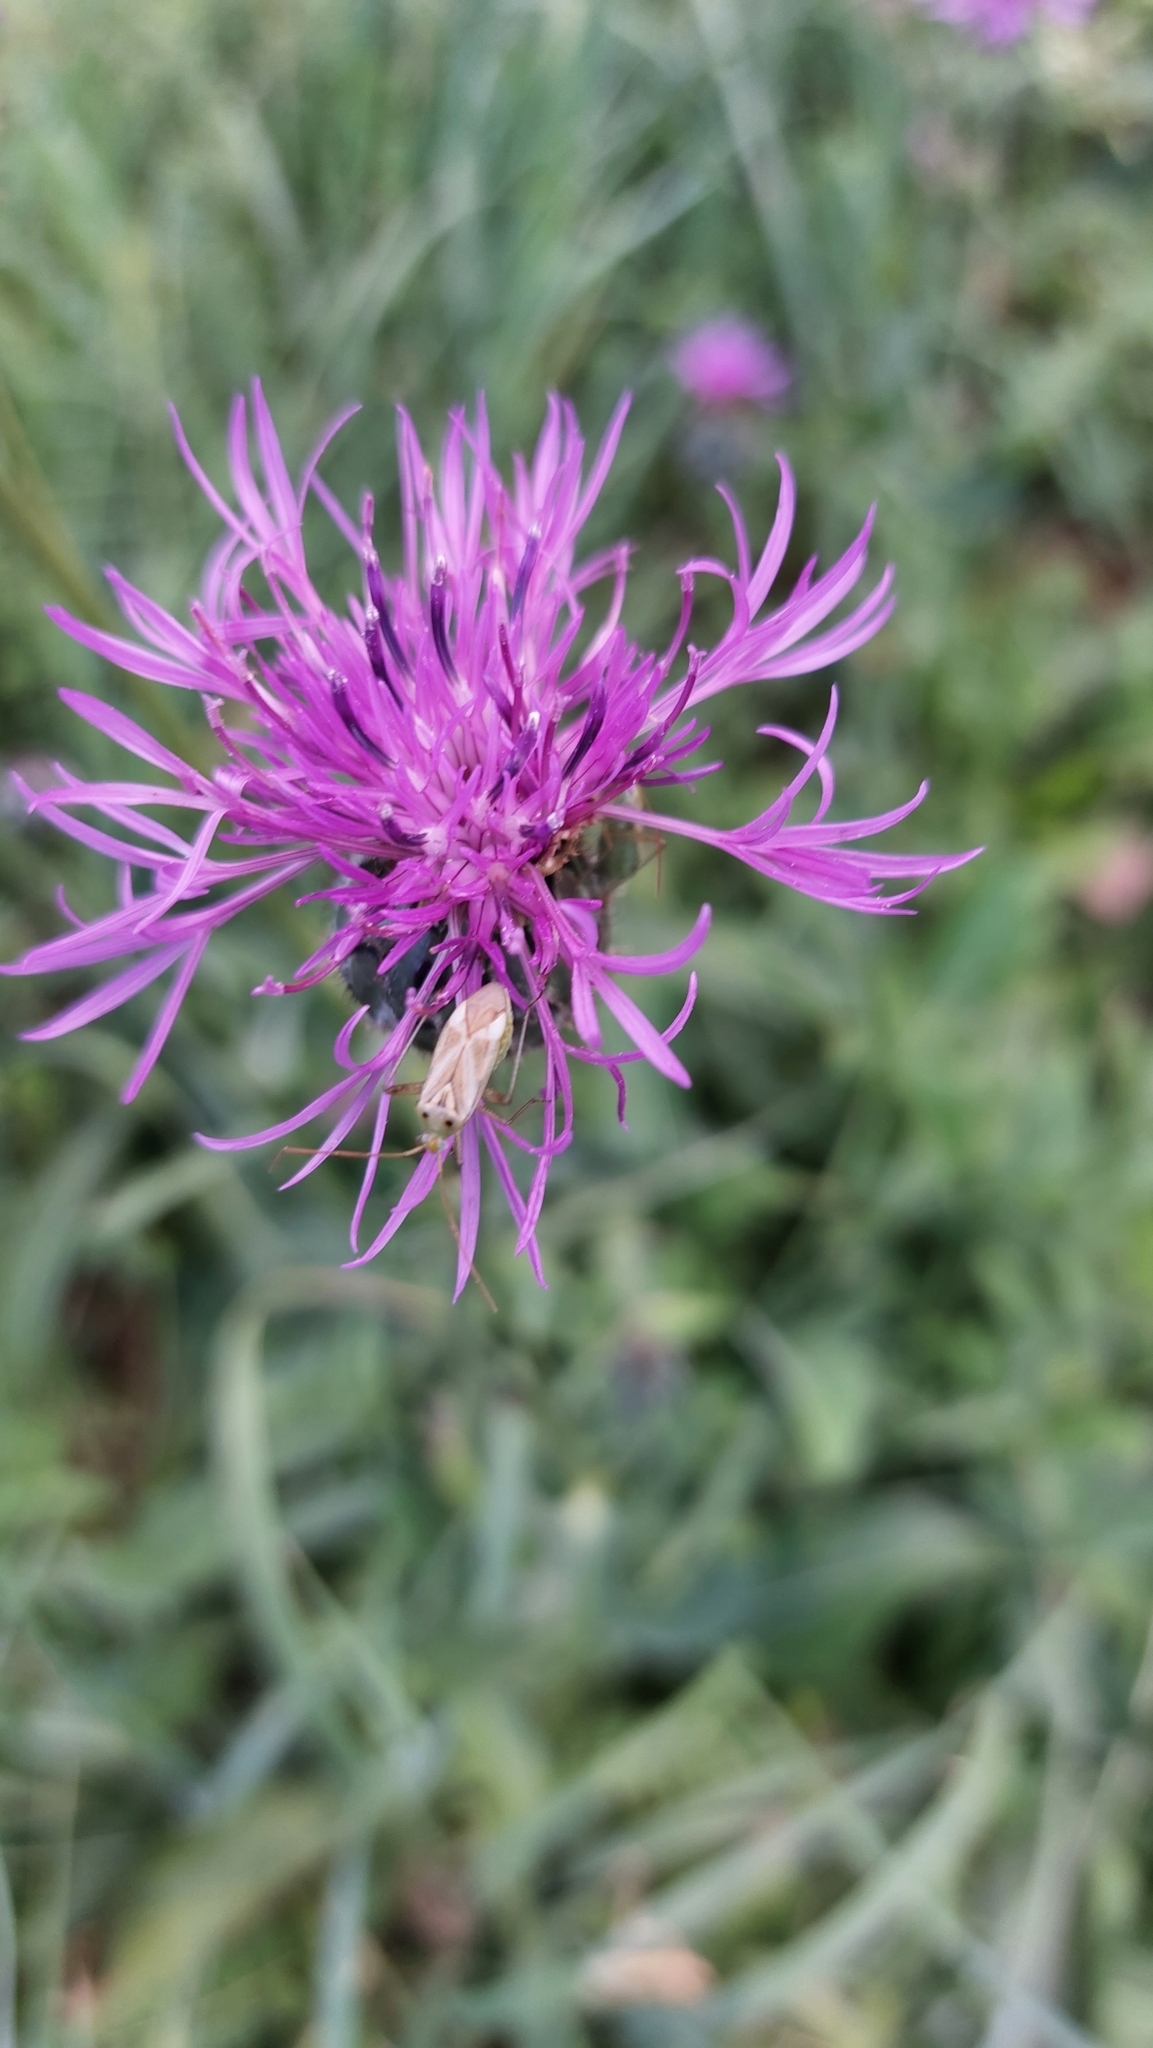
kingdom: Animalia
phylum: Arthropoda
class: Insecta
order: Hemiptera
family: Miridae
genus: Adelphocoris
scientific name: Adelphocoris lineolatus
